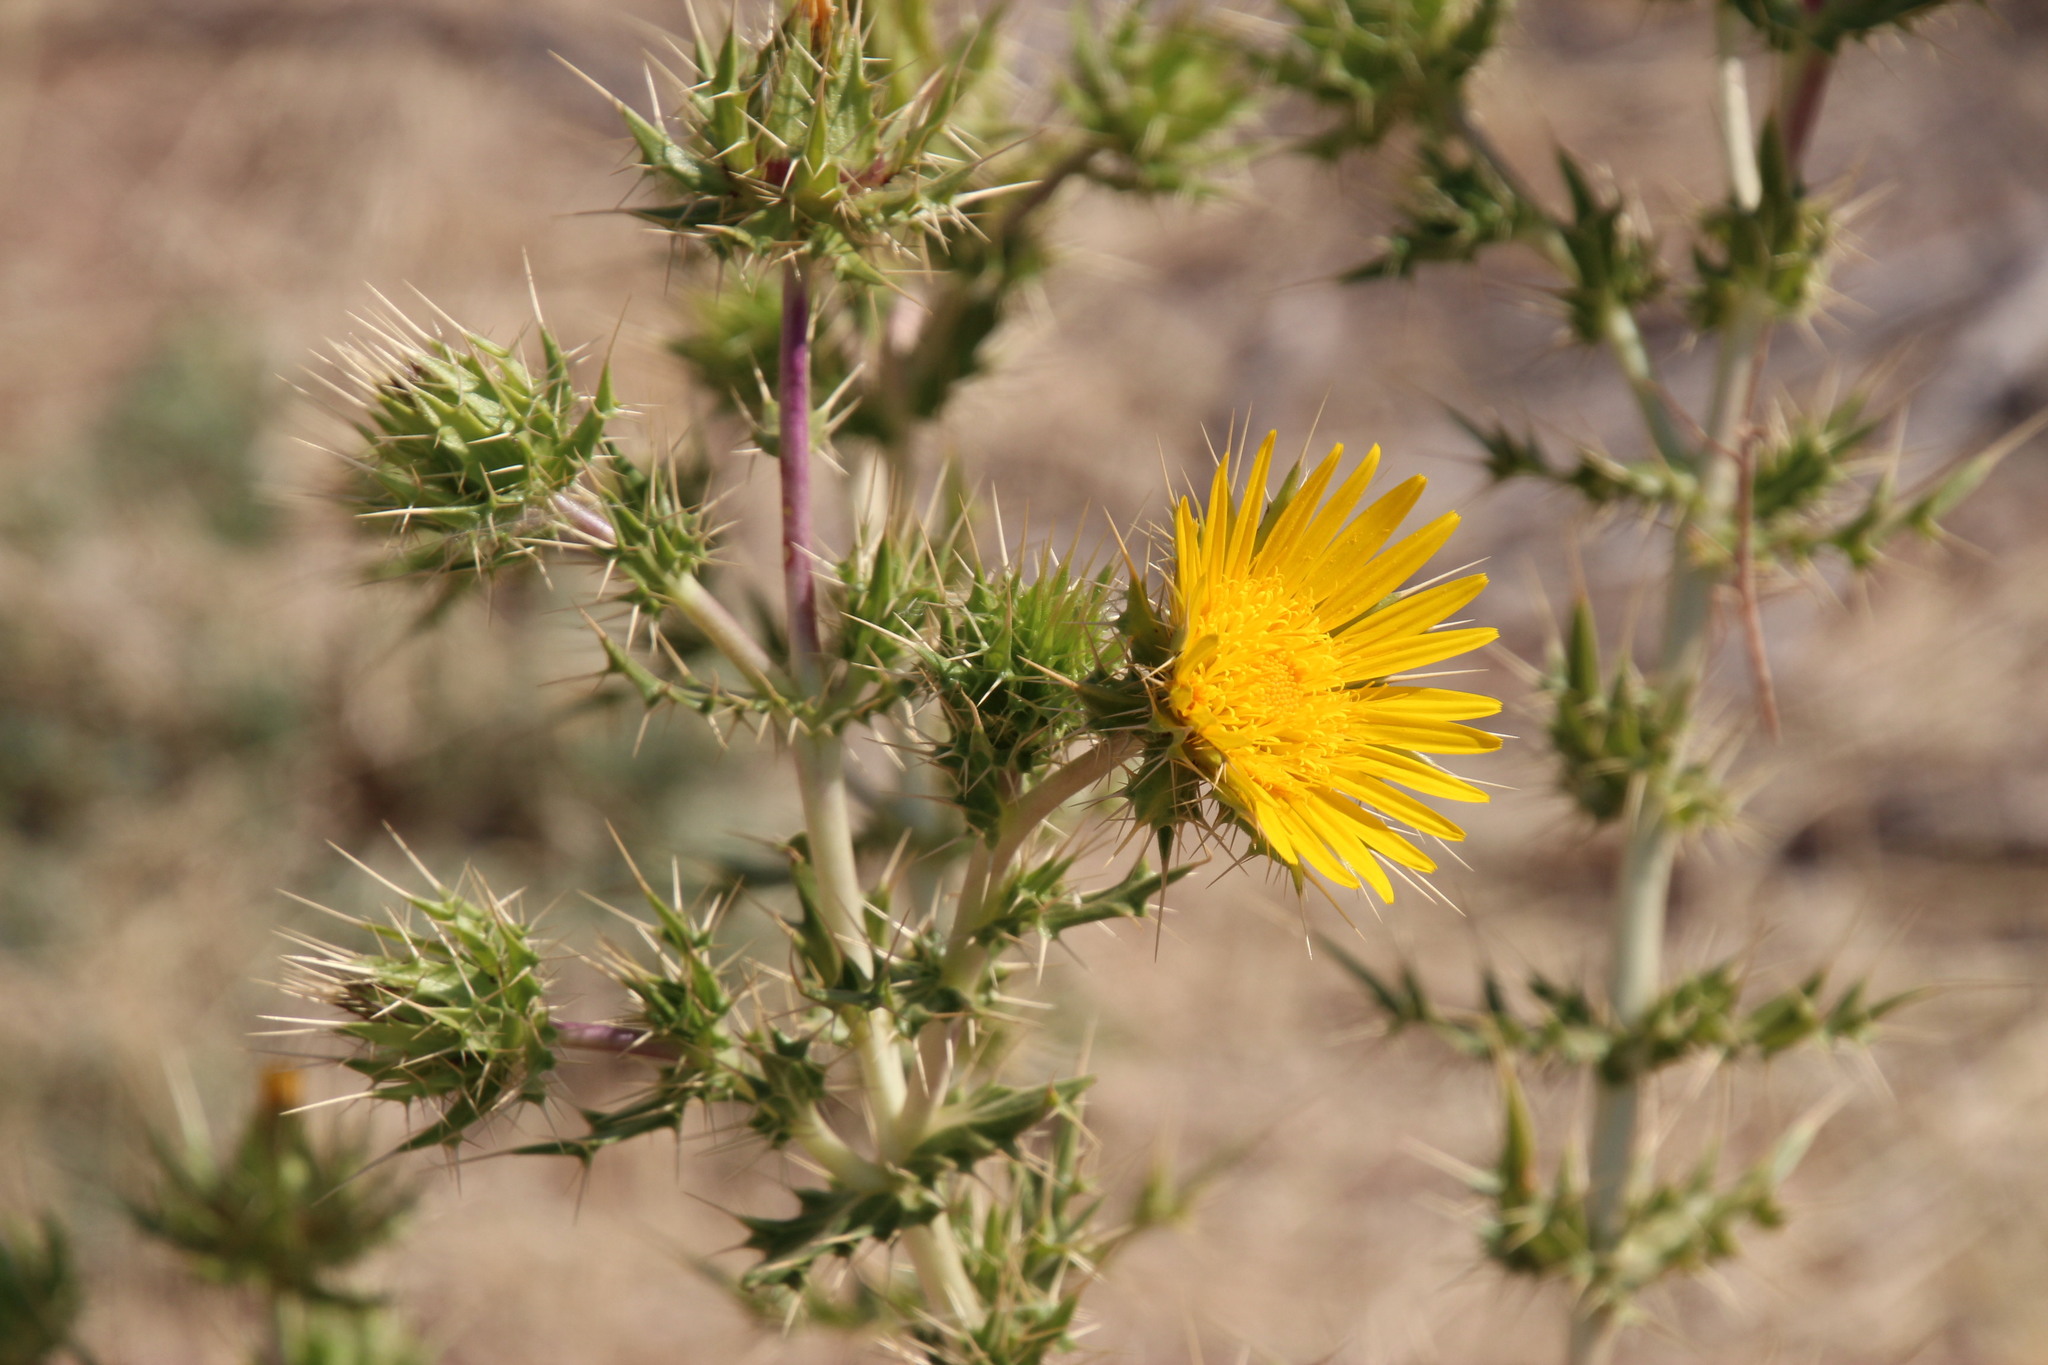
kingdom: Plantae
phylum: Tracheophyta
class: Magnoliopsida
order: Asterales
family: Asteraceae
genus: Berkheya
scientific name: Berkheya spinosissima
